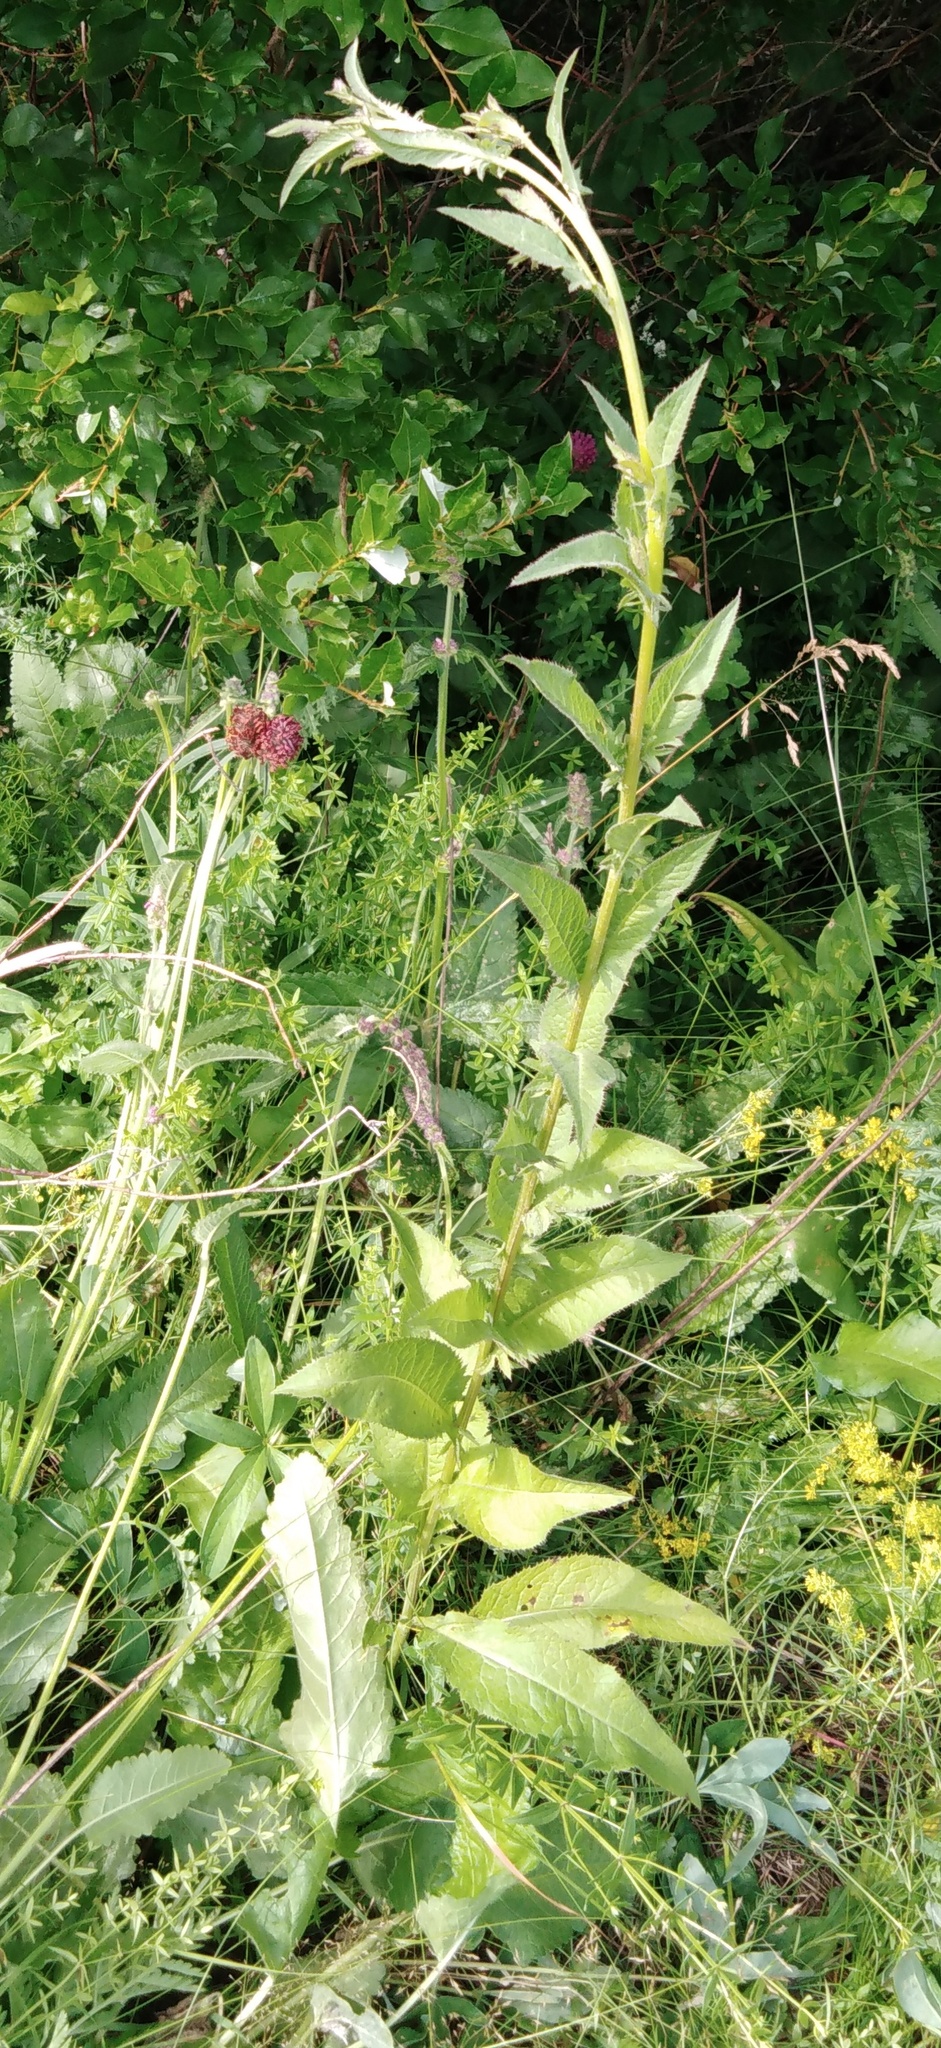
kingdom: Plantae
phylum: Tracheophyta
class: Magnoliopsida
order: Asterales
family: Asteraceae
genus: Serratula
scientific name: Serratula tinctoria
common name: Saw-wort
